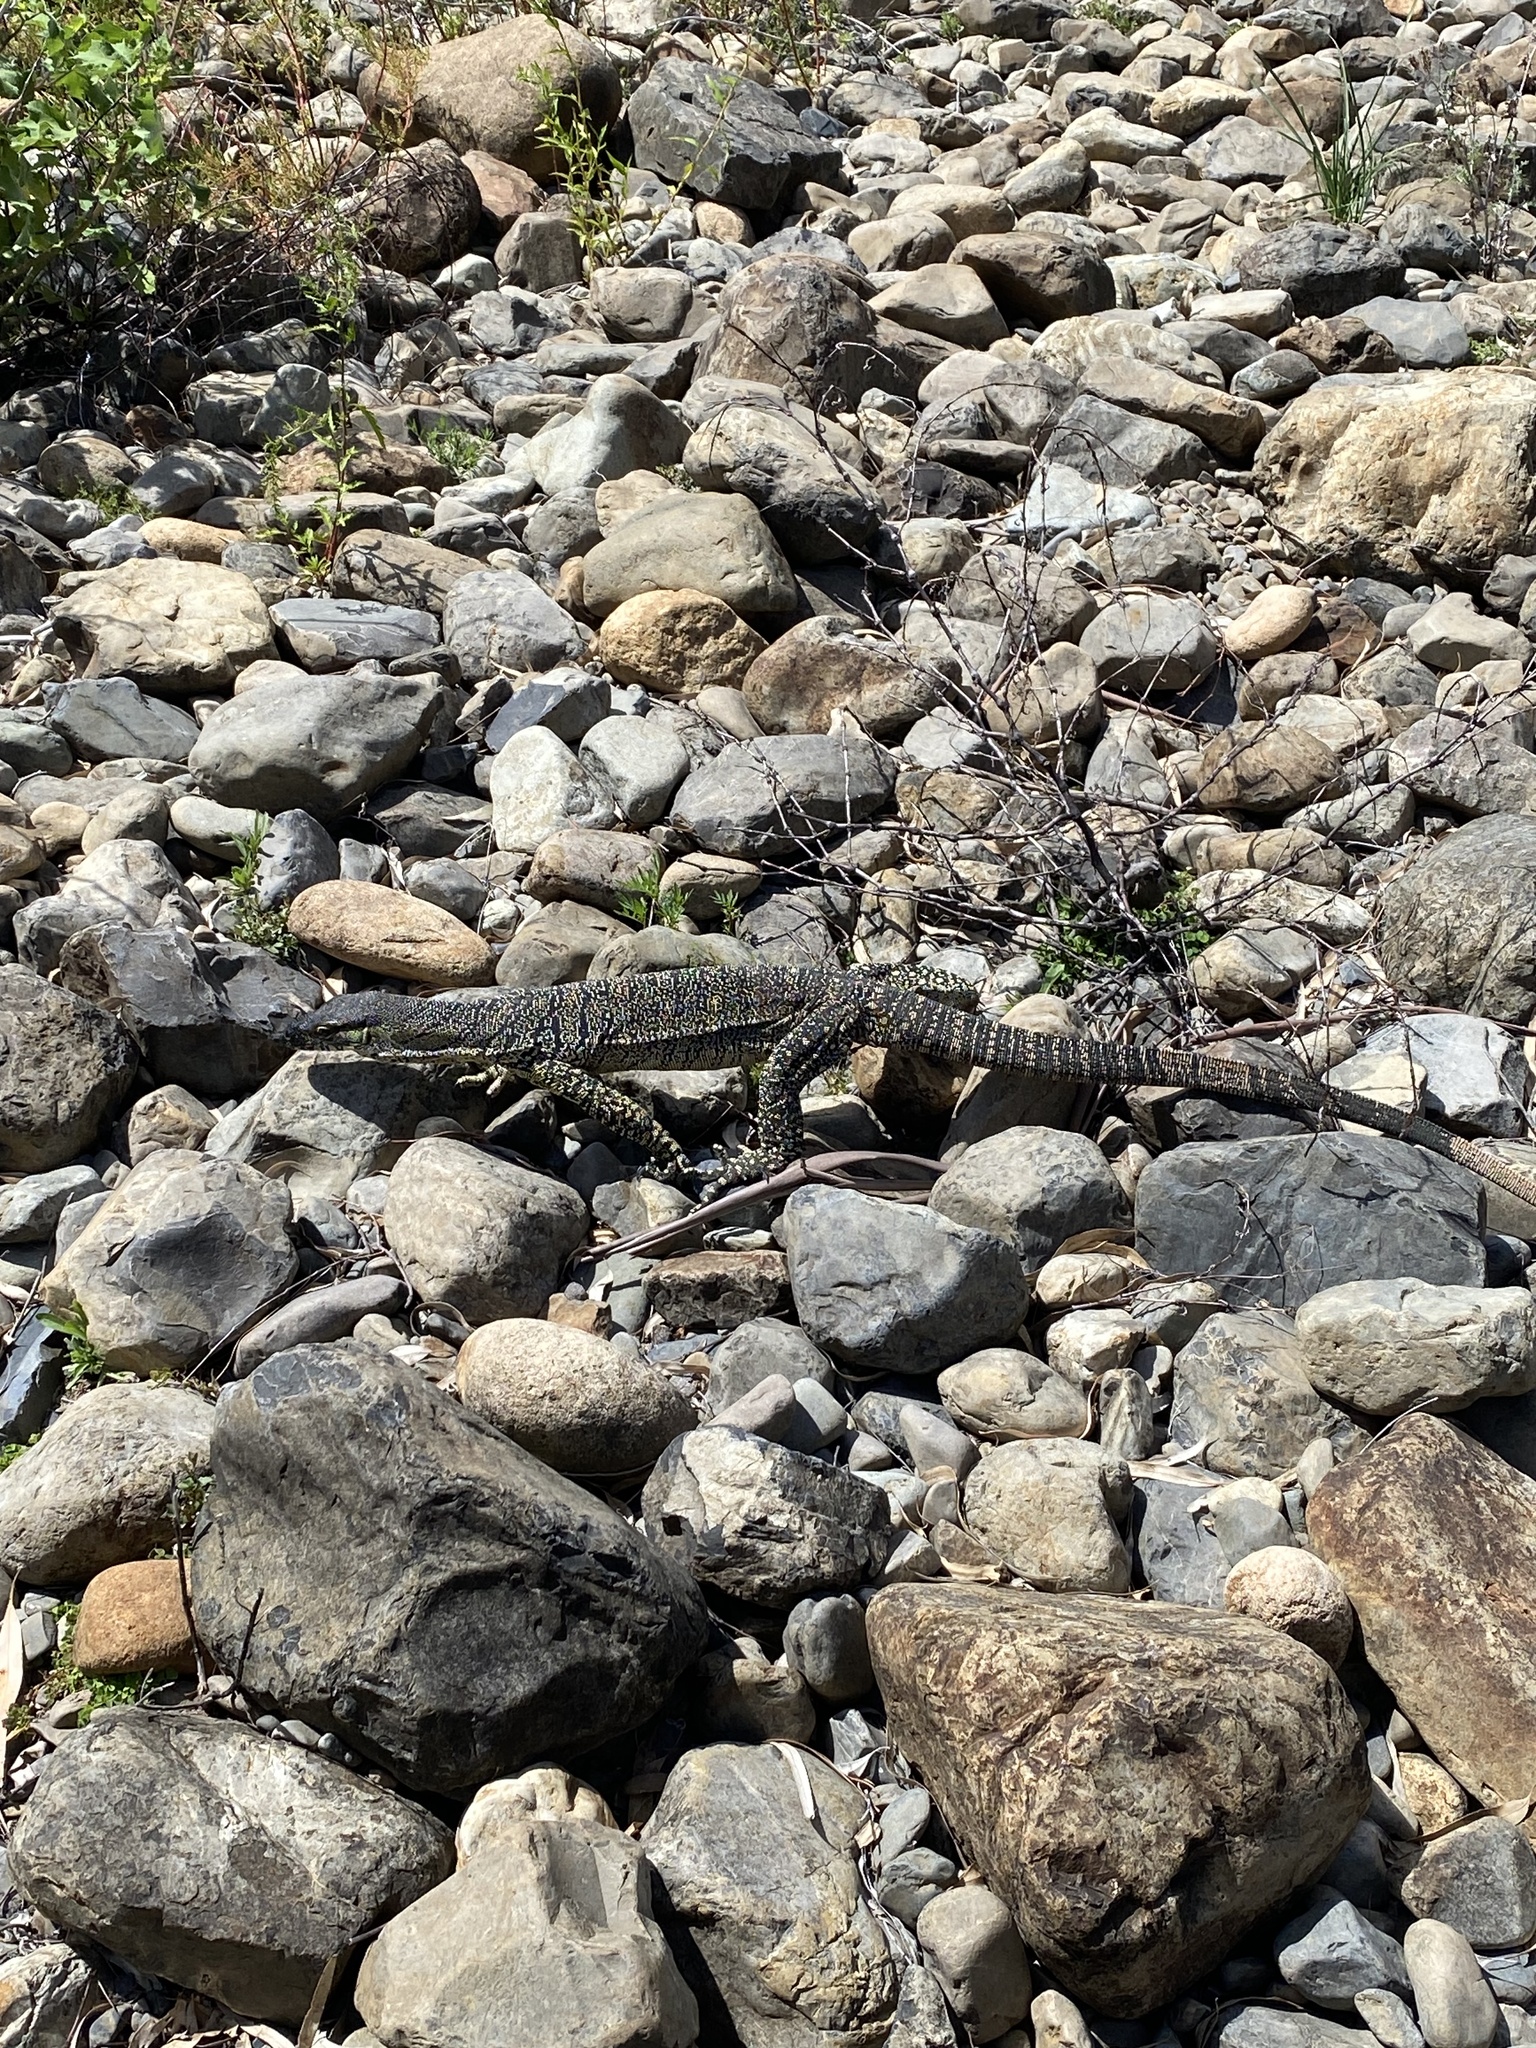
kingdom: Animalia
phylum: Chordata
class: Squamata
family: Varanidae
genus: Varanus
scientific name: Varanus varius
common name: Lace monitor
